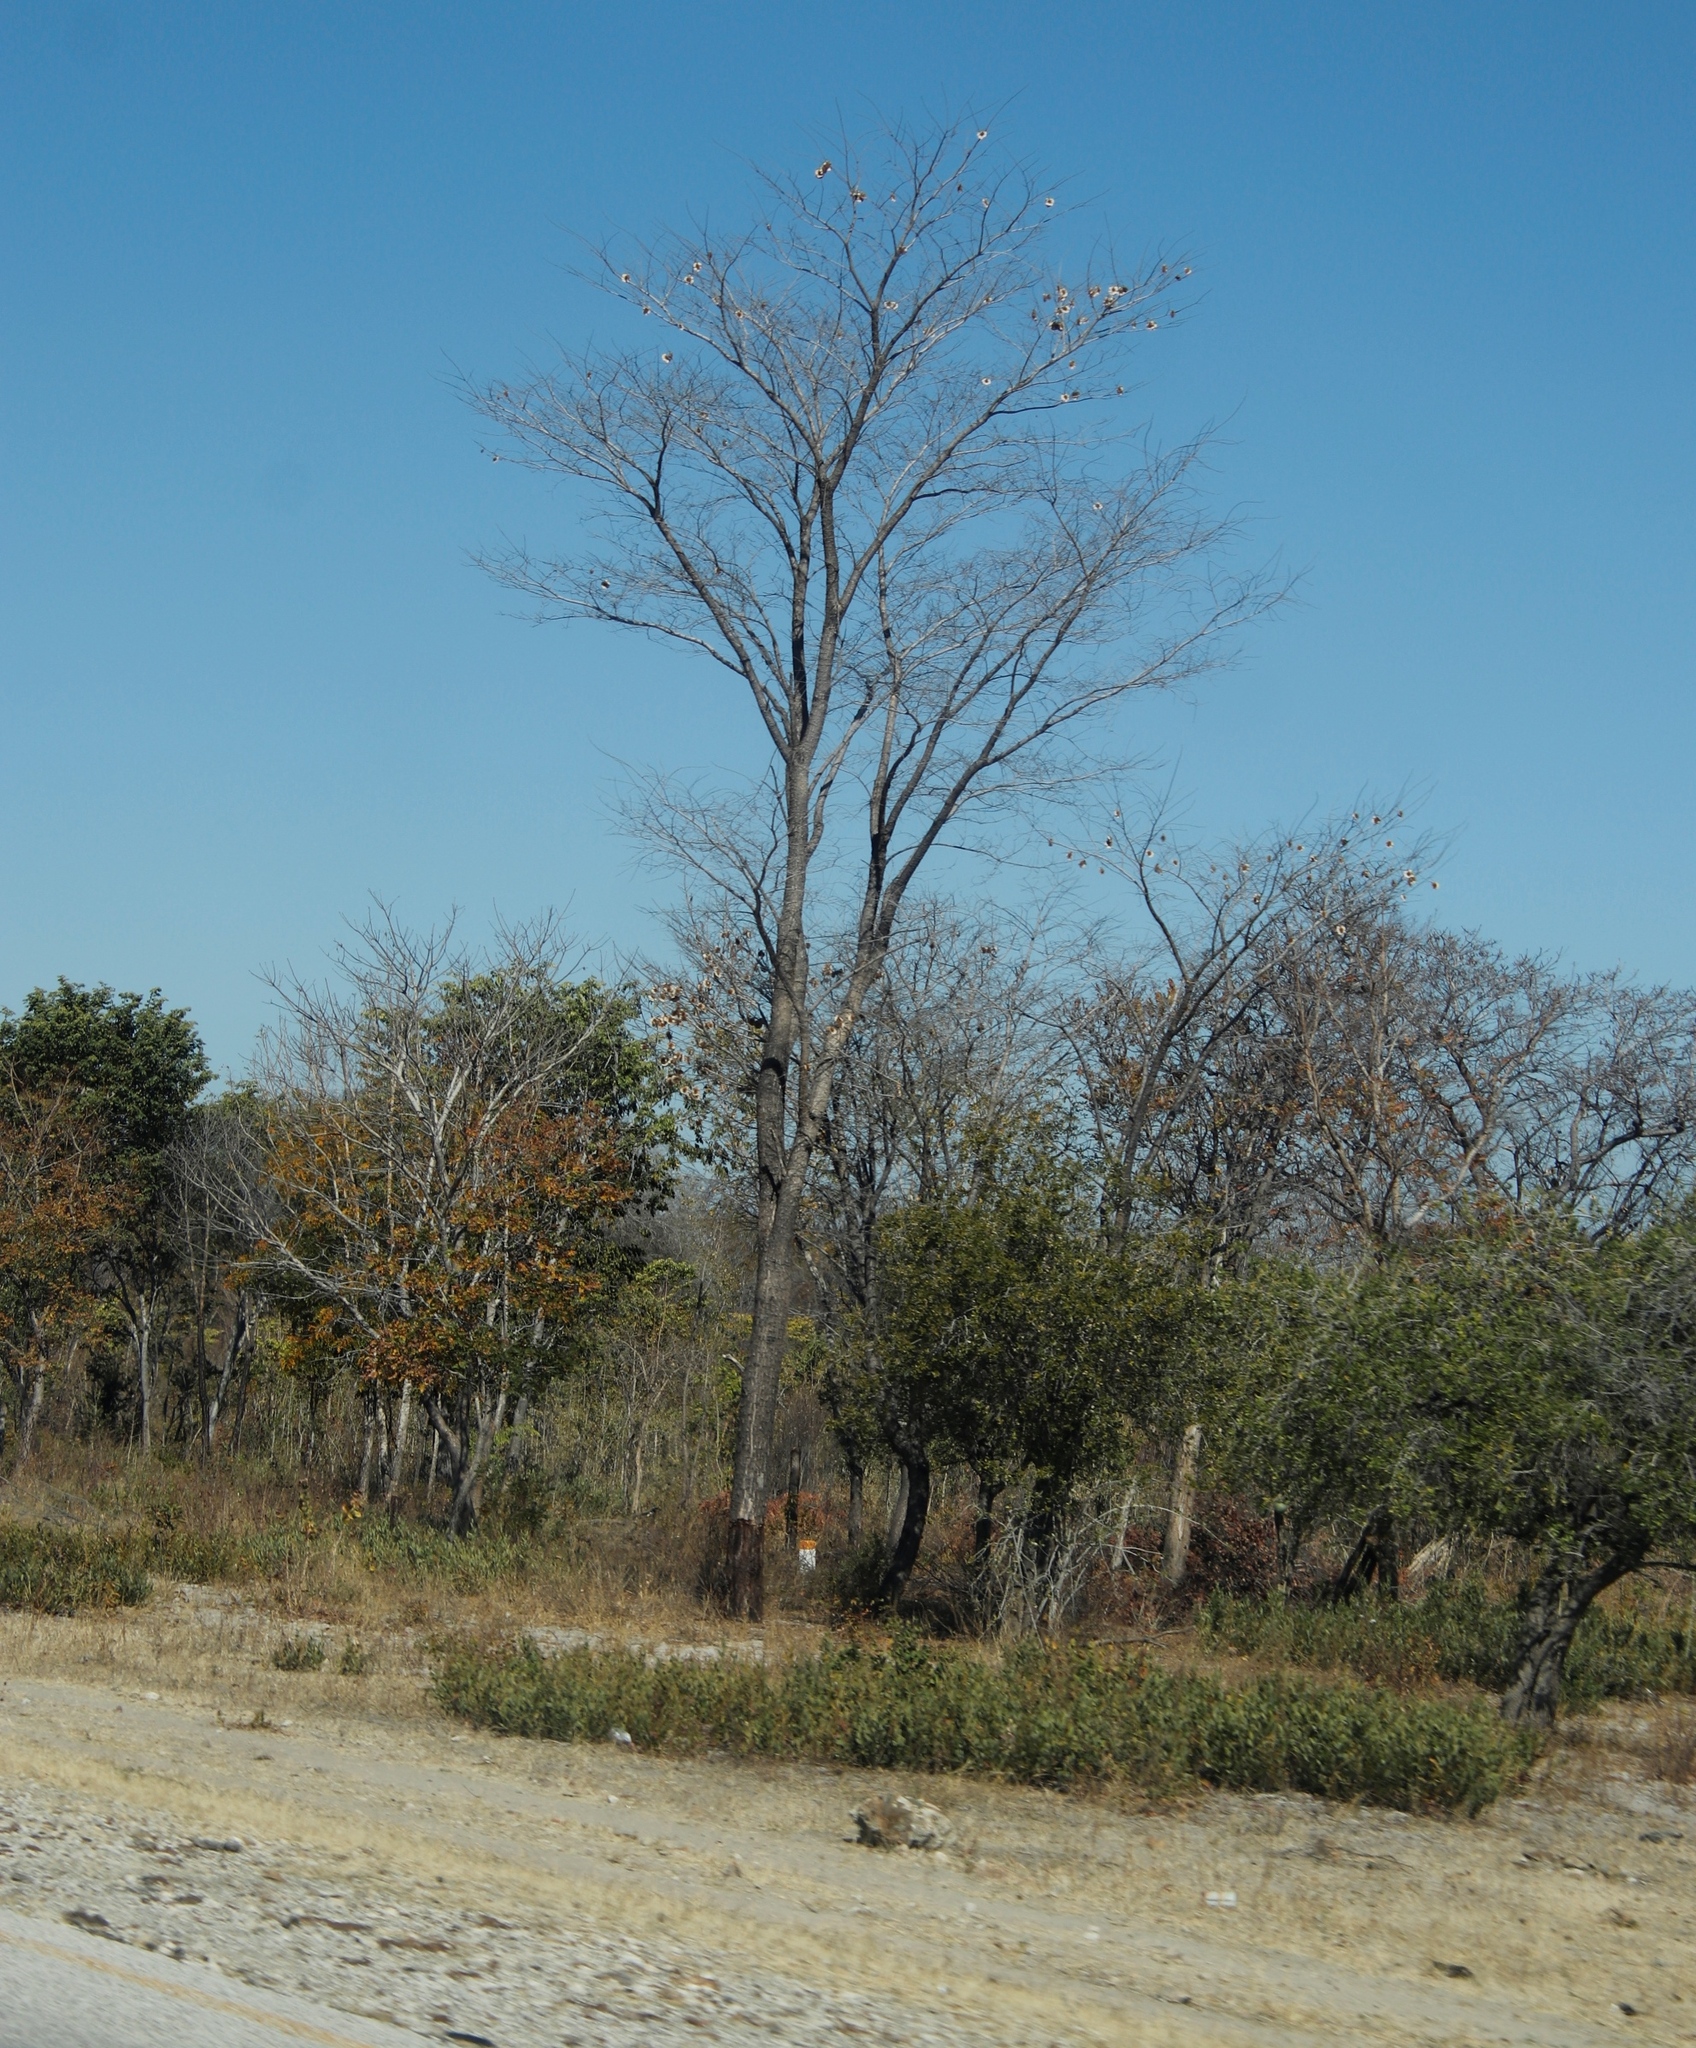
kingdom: Plantae
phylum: Tracheophyta
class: Magnoliopsida
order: Fabales
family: Fabaceae
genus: Pterocarpus
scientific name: Pterocarpus angolensis
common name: Bloodwood tree
